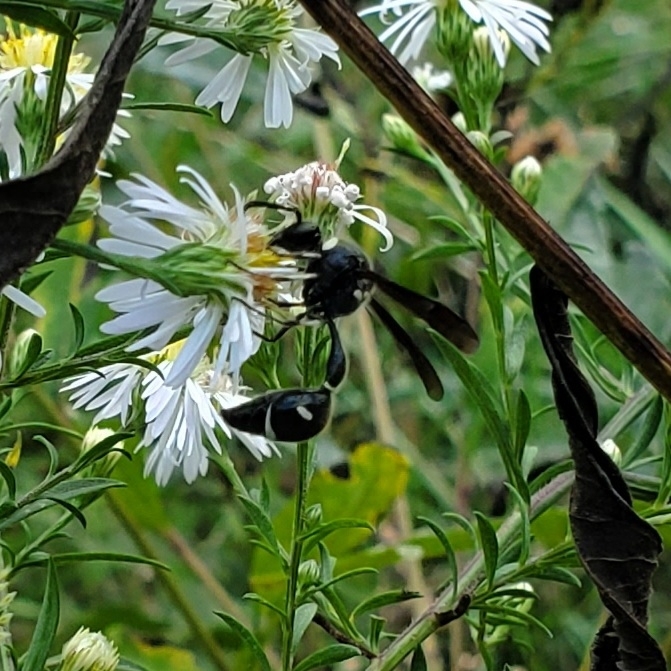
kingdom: Animalia
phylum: Arthropoda
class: Insecta
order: Hymenoptera
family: Vespidae
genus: Eumenes
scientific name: Eumenes fraternus
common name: Fraternal potter wasp
